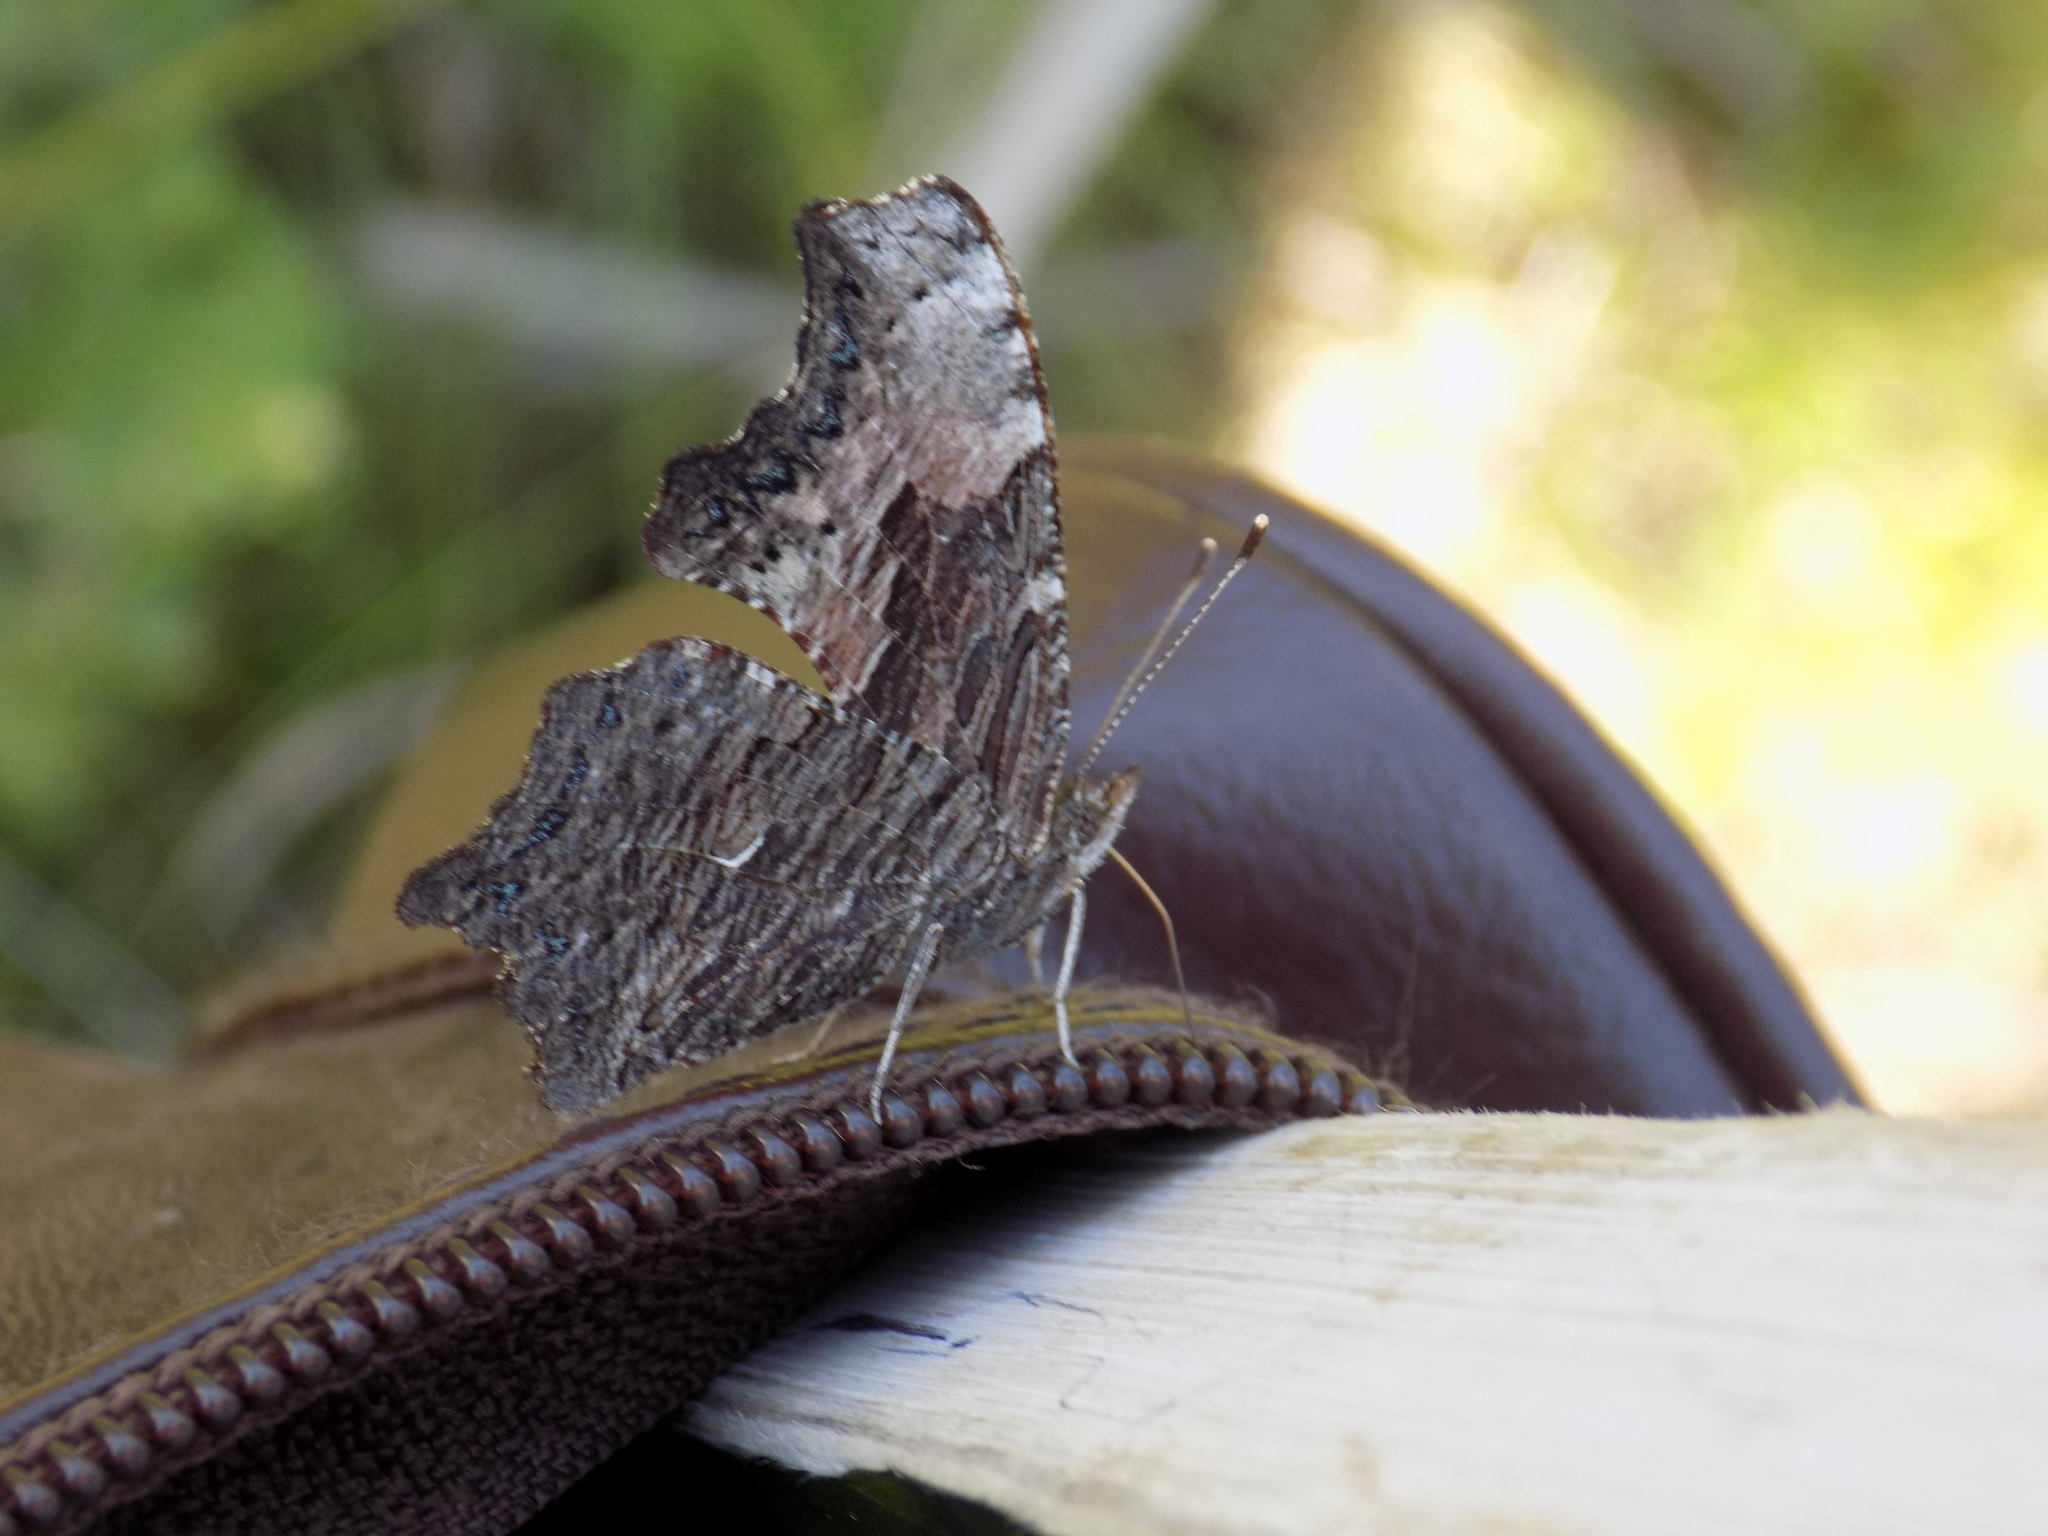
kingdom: Animalia
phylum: Arthropoda
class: Insecta
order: Lepidoptera
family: Nymphalidae
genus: Polygonia
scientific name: Polygonia progne
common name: Gray comma
